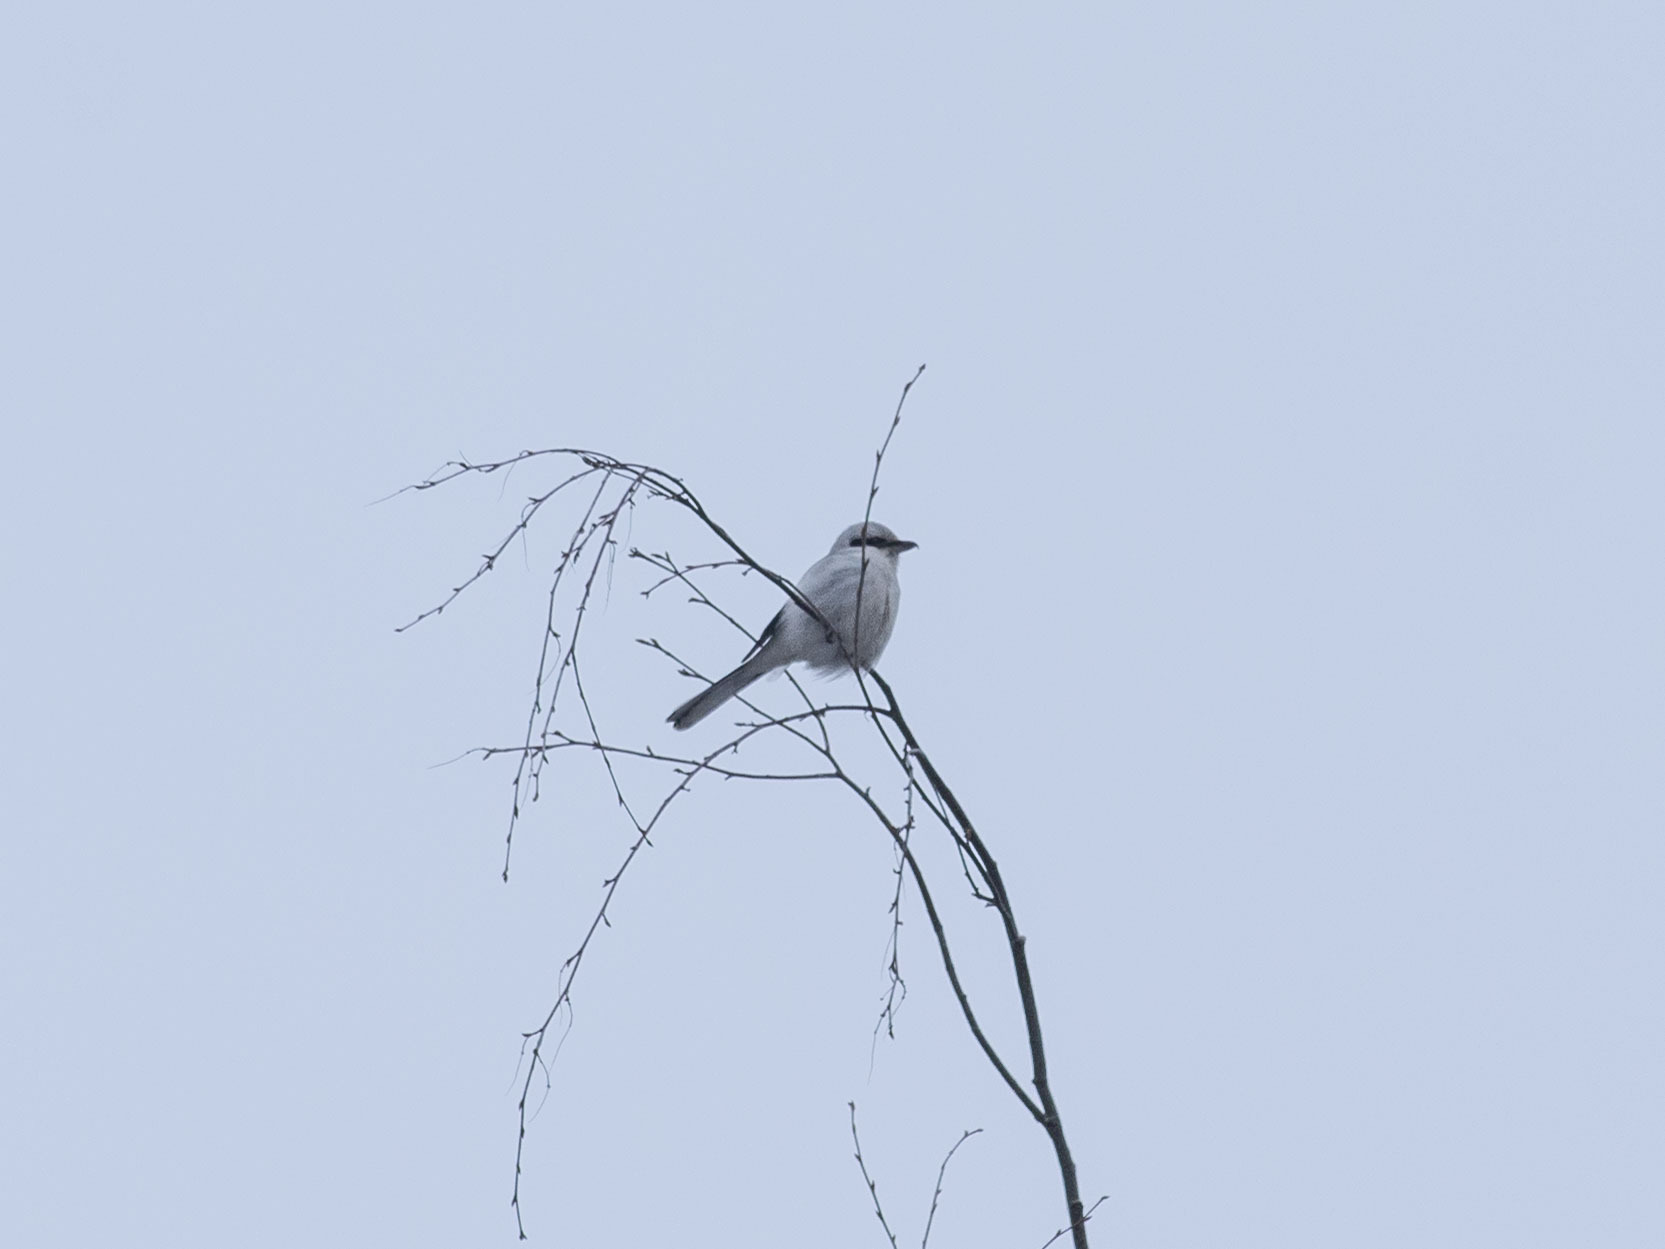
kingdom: Animalia
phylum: Chordata
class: Aves
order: Passeriformes
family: Laniidae
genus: Lanius
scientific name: Lanius excubitor
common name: Great grey shrike
